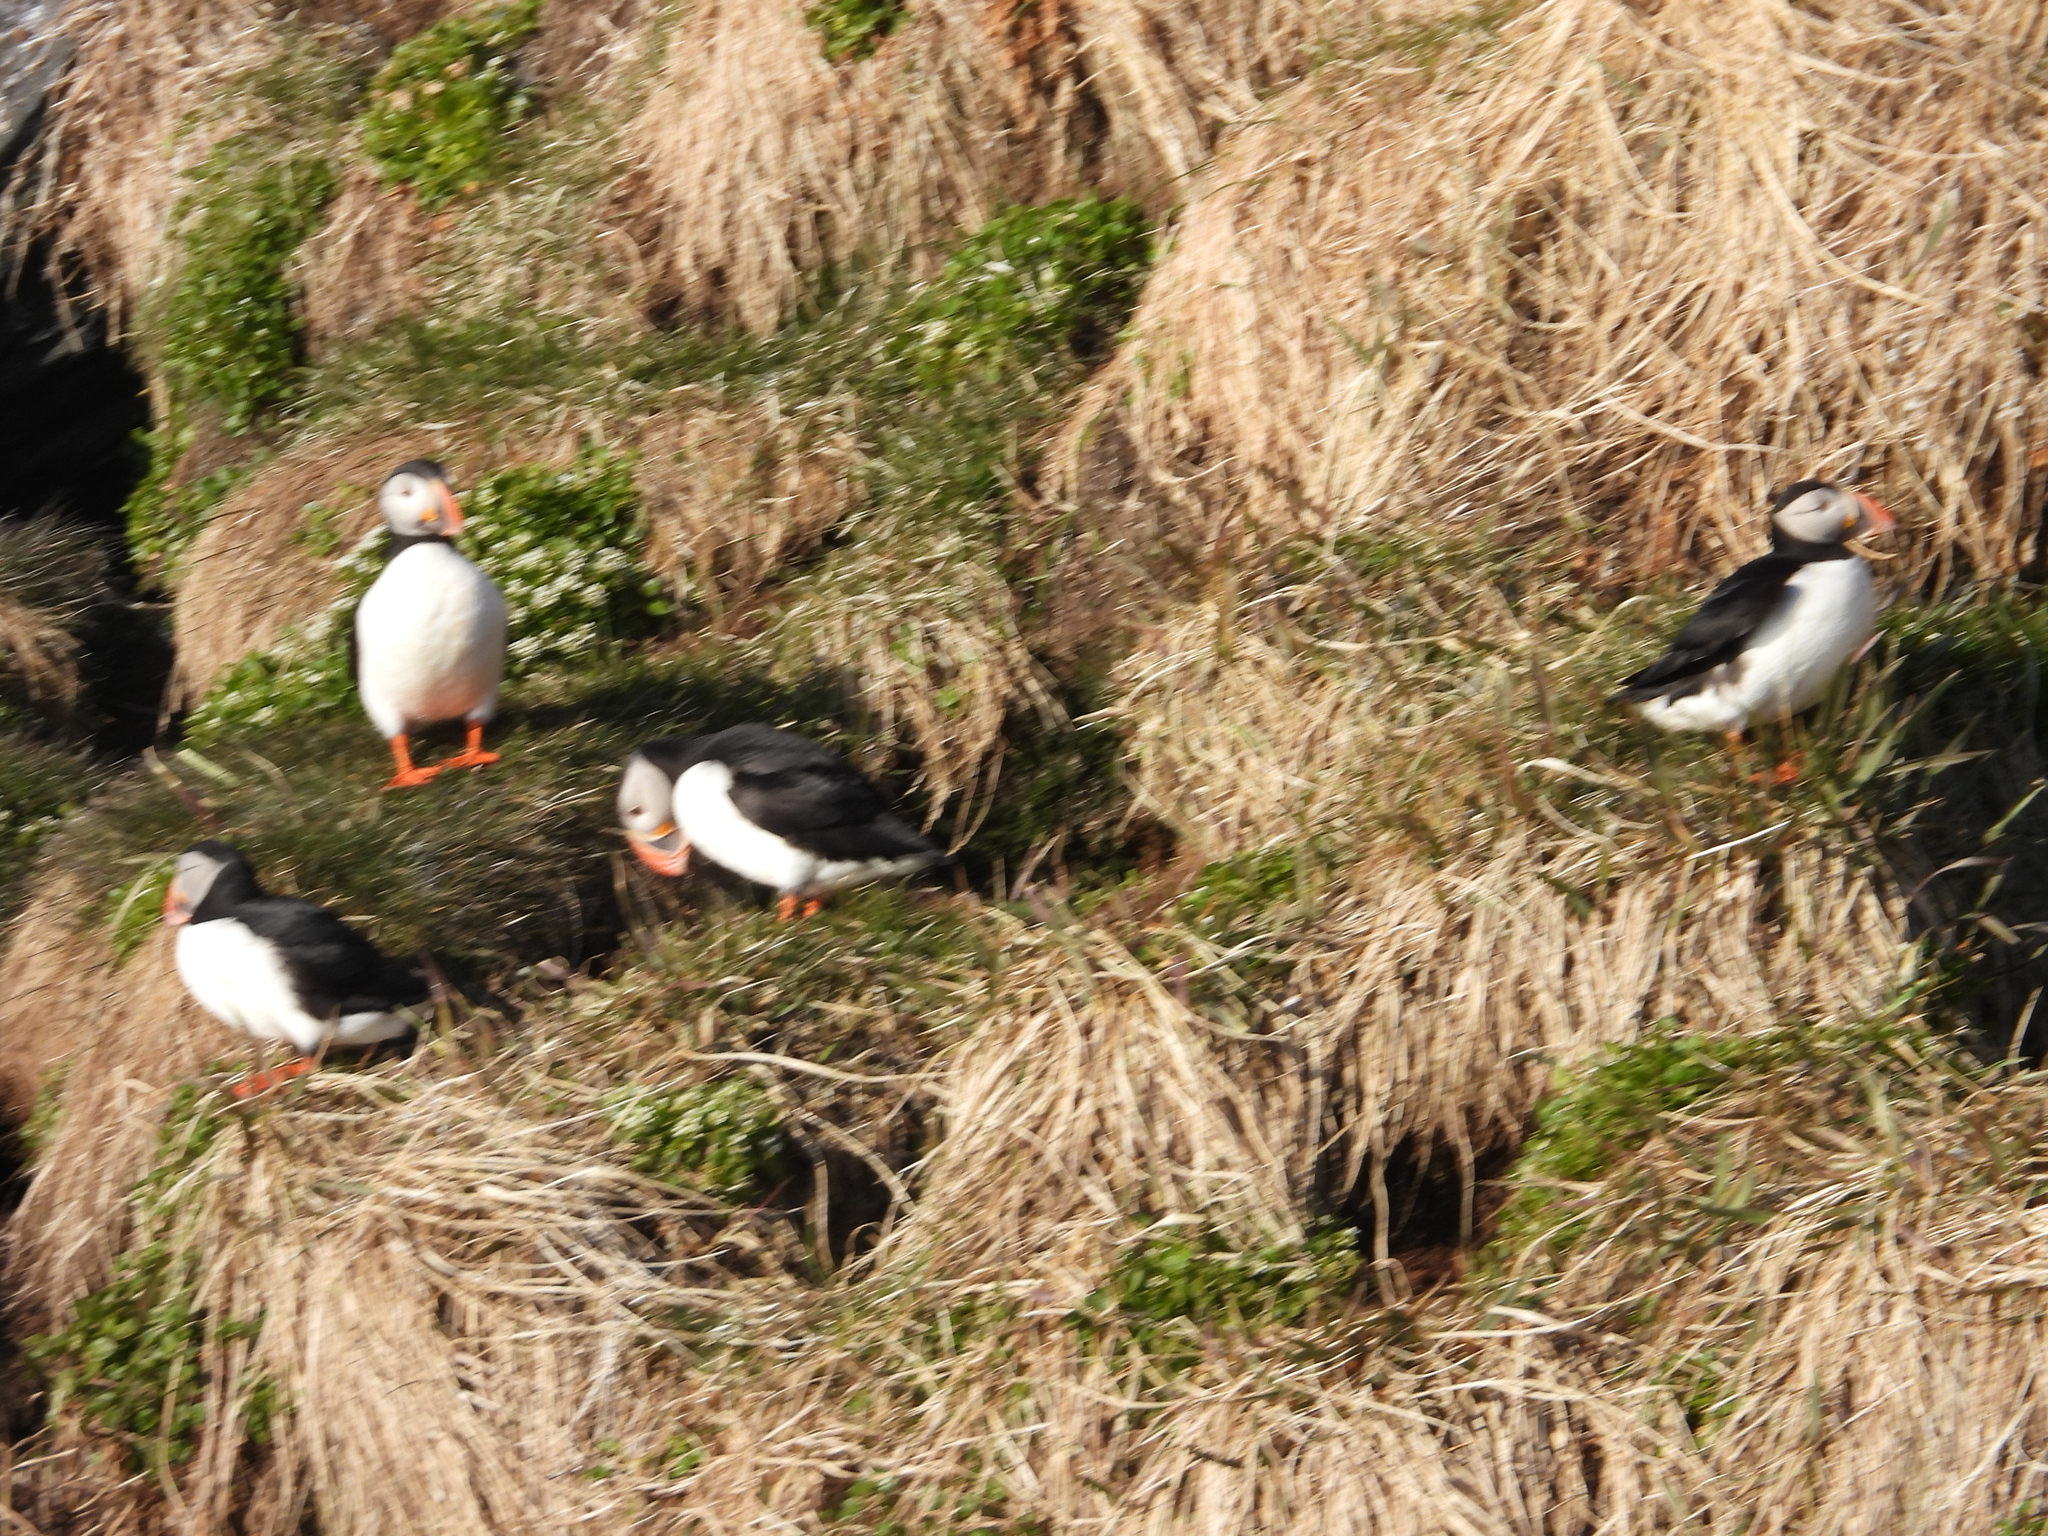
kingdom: Animalia
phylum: Chordata
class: Aves
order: Charadriiformes
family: Alcidae
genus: Fratercula
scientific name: Fratercula arctica
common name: Atlantic puffin
